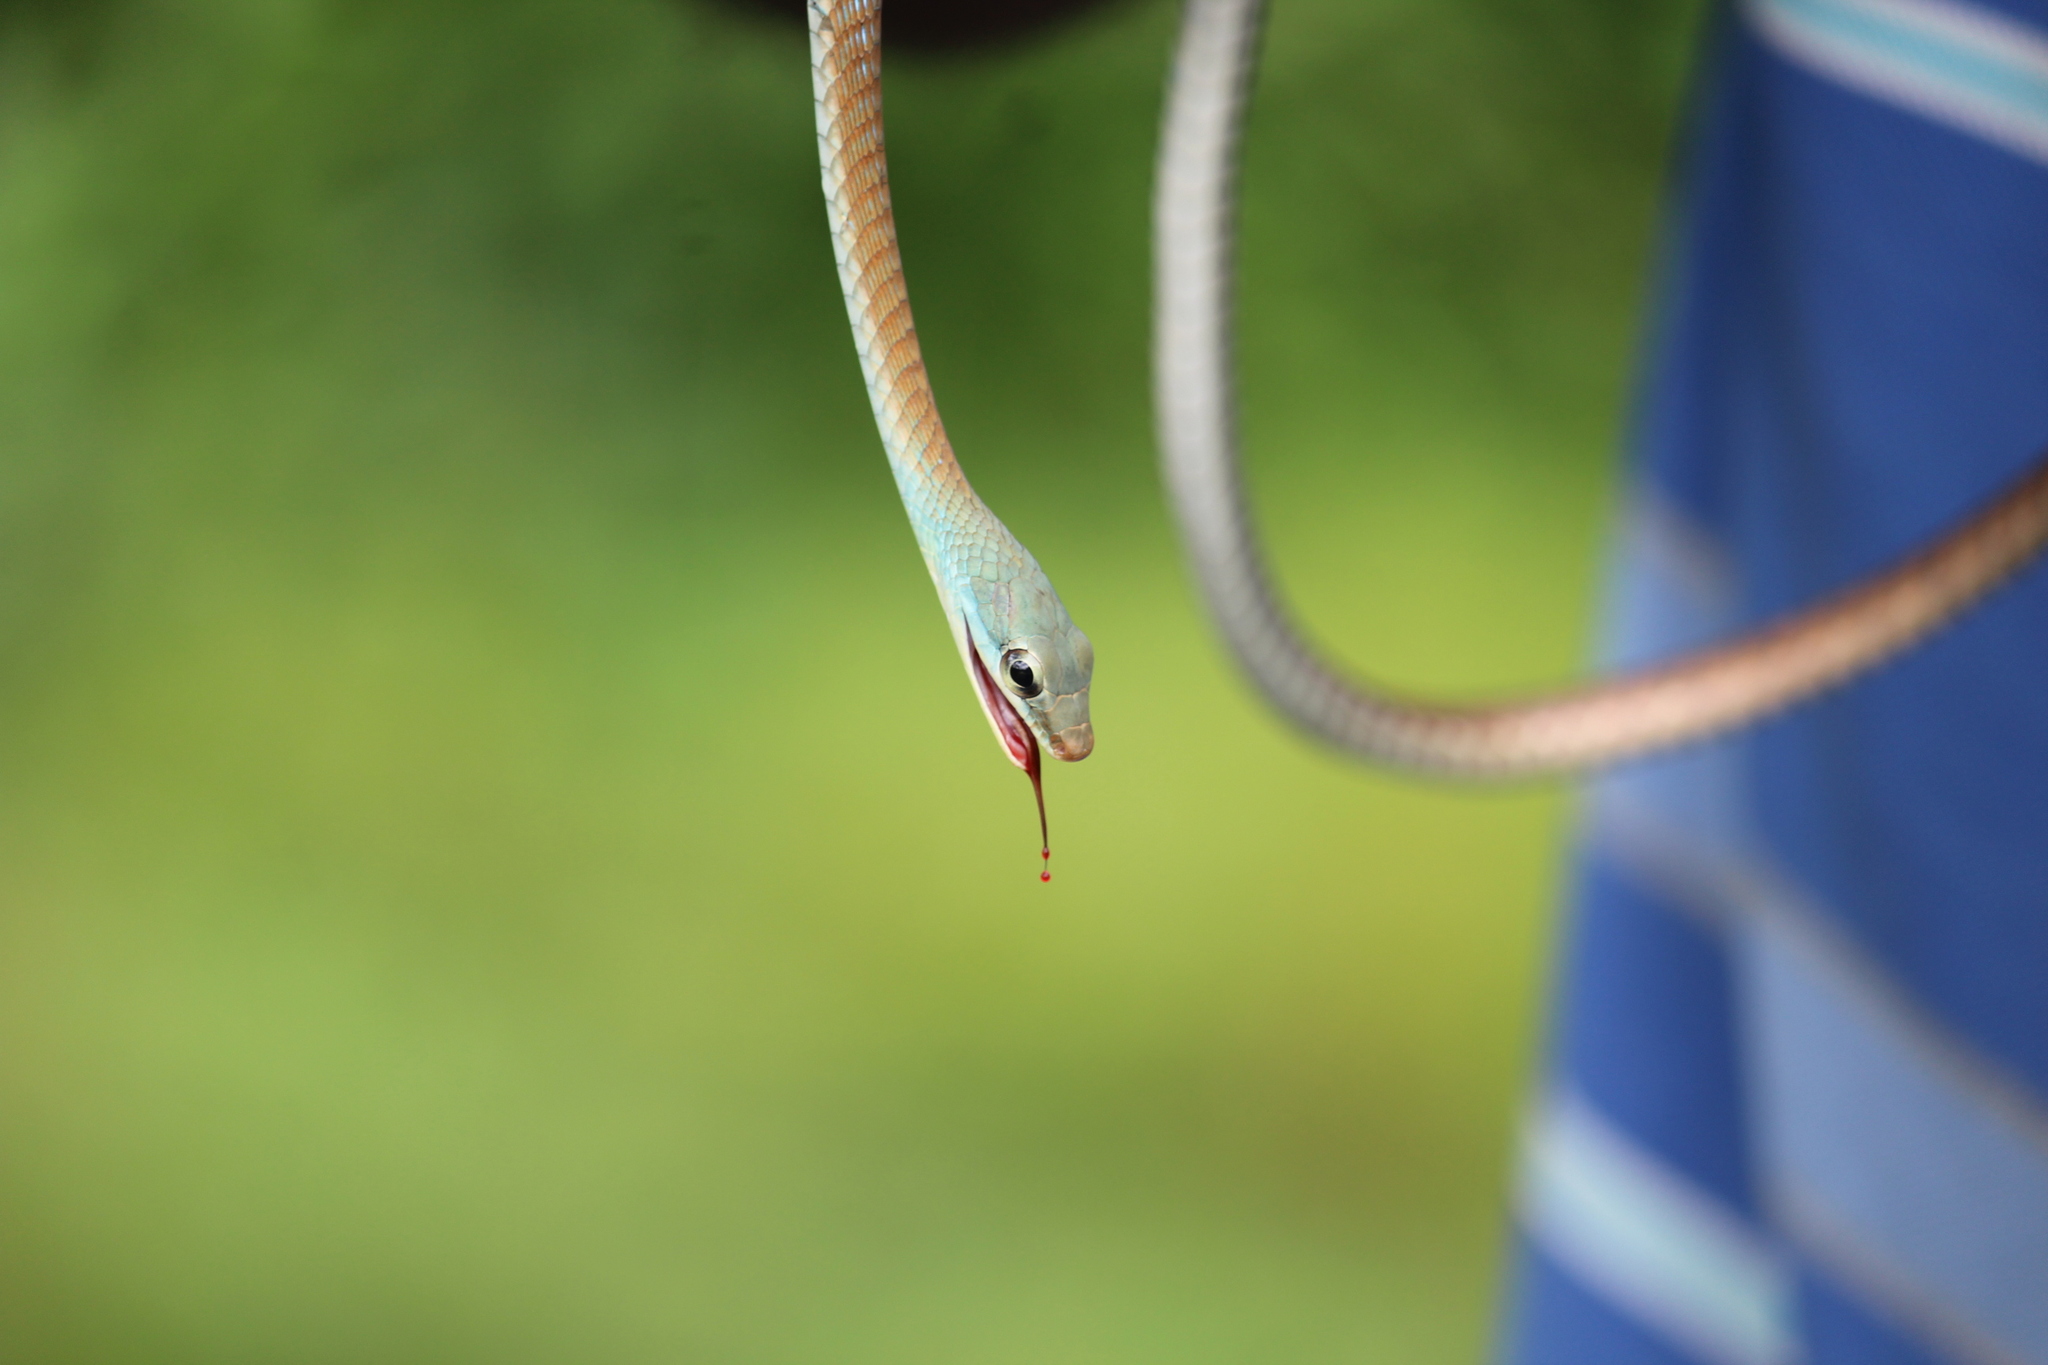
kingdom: Animalia
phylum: Chordata
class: Squamata
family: Colubridae
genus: Dendrelaphis
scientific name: Dendrelaphis grandoculis
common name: Southern bronzeback
